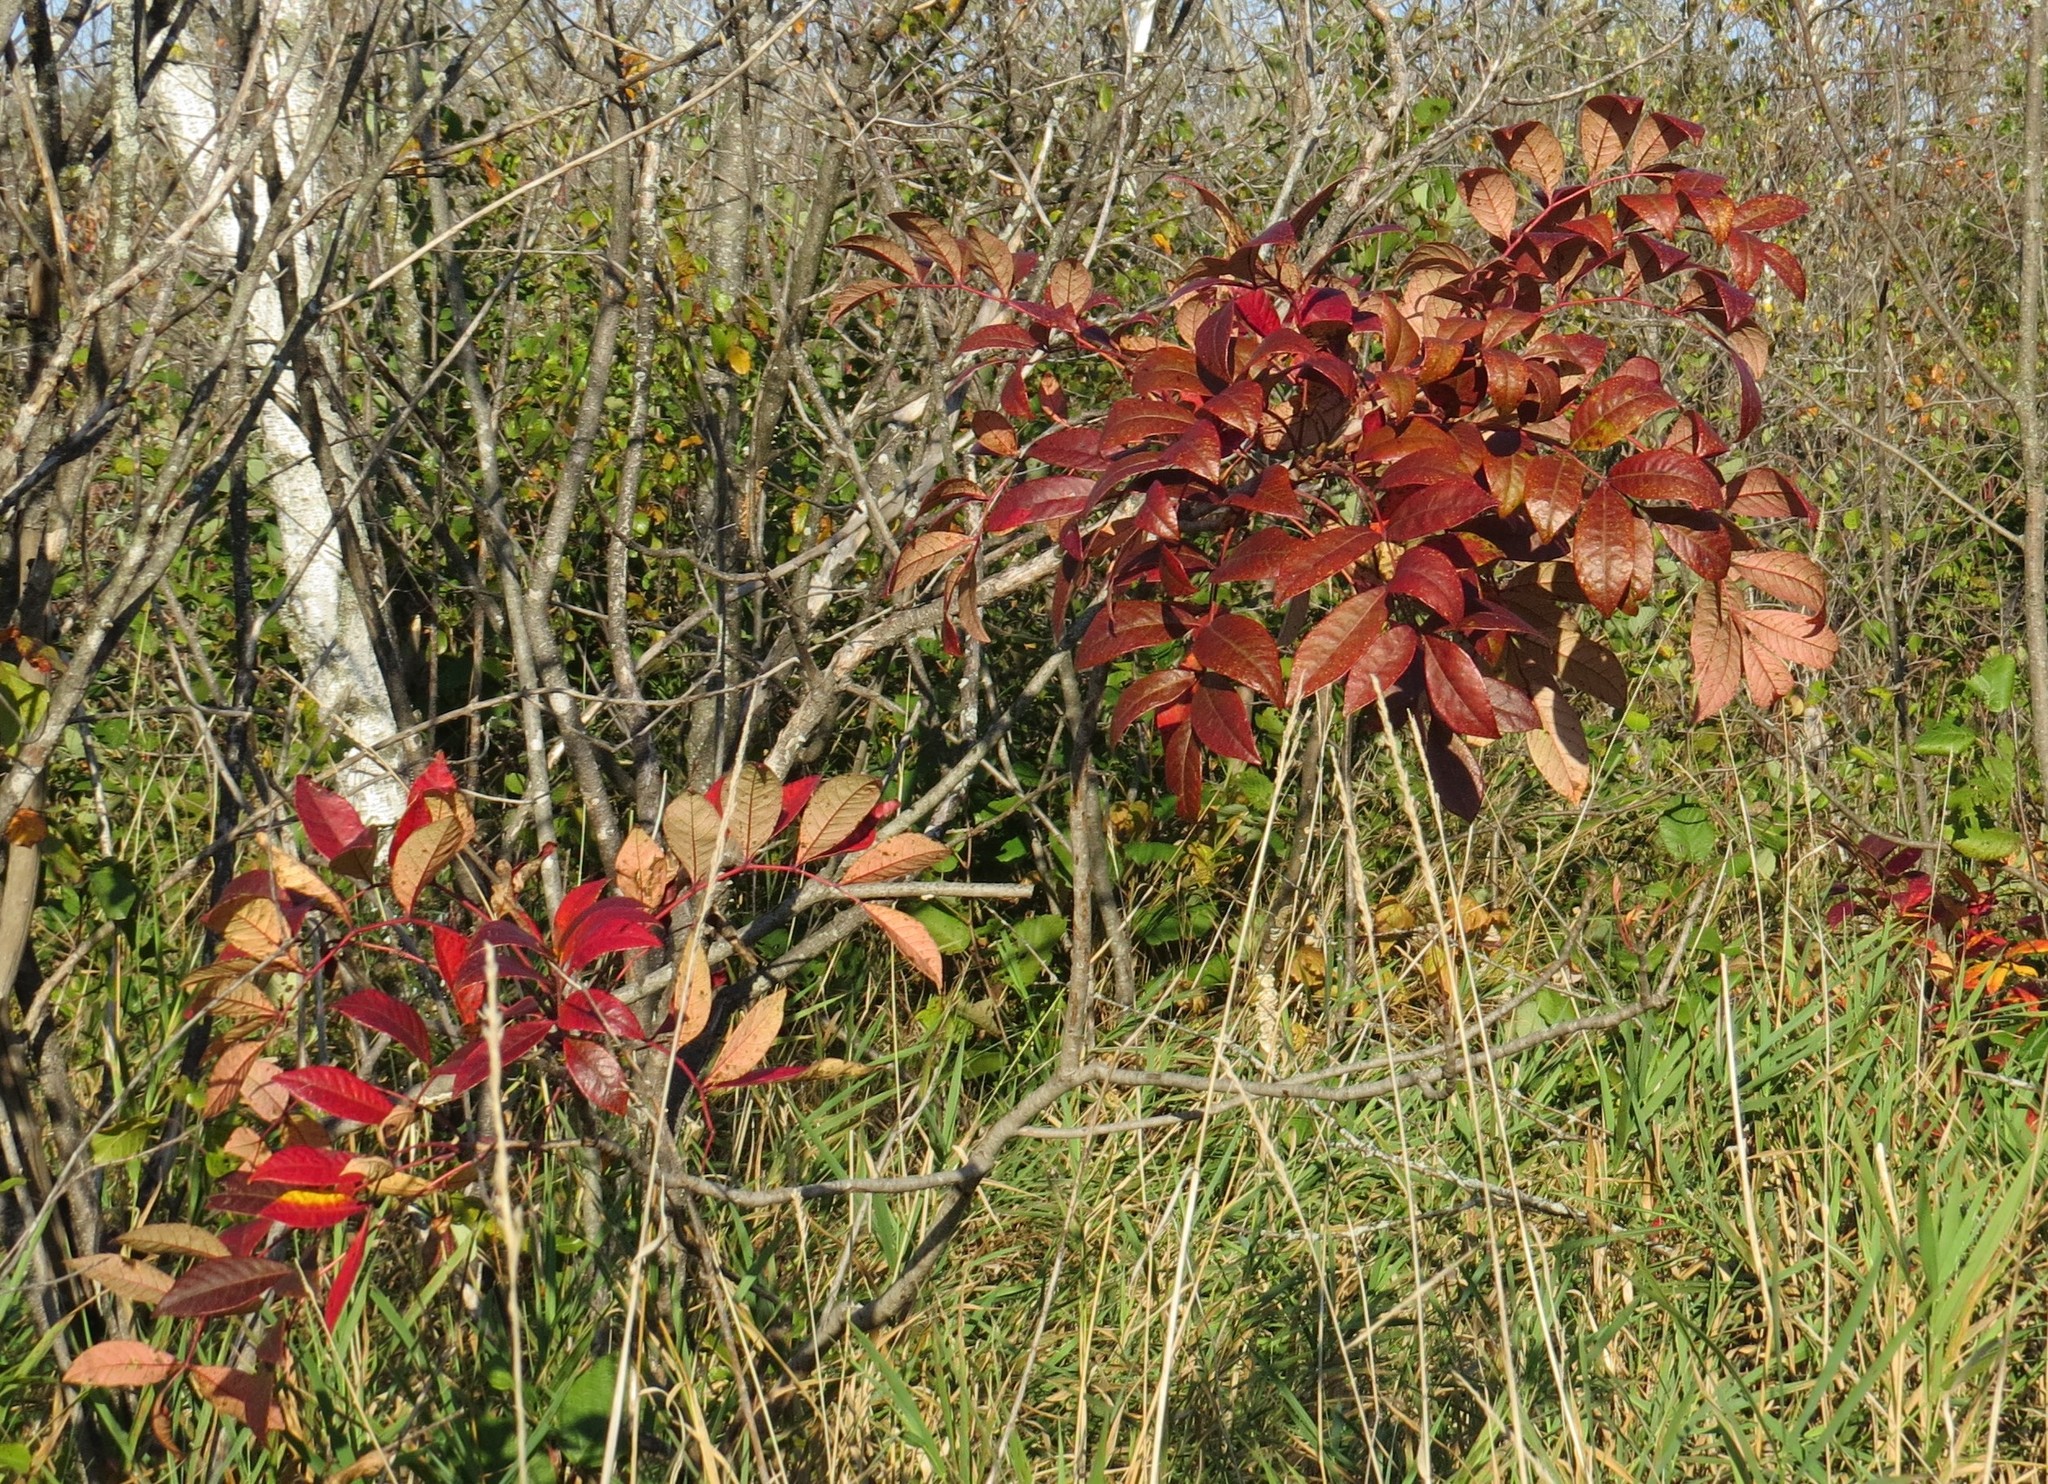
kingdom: Plantae
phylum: Tracheophyta
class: Magnoliopsida
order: Sapindales
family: Anacardiaceae
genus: Toxicodendron
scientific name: Toxicodendron vernix
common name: Poison sumac
